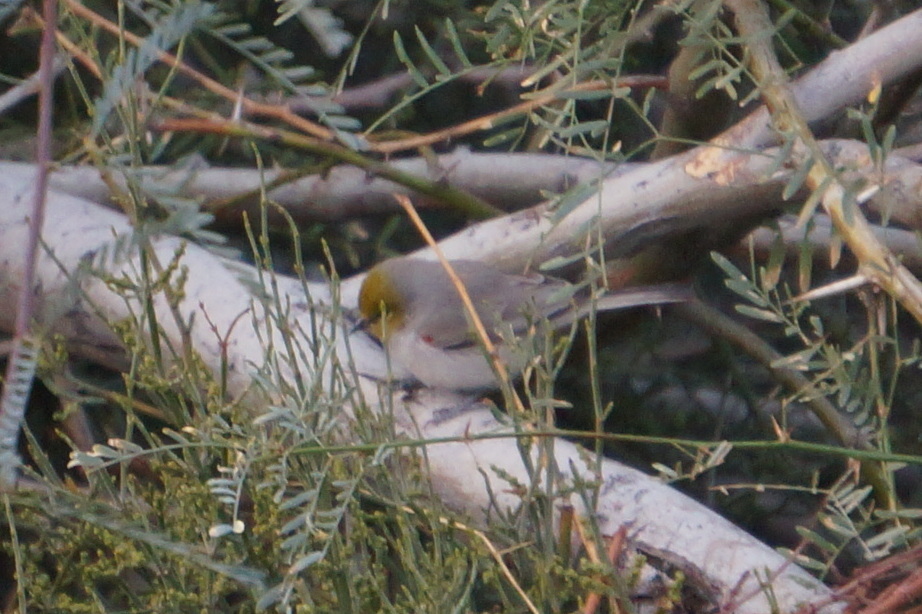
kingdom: Animalia
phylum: Chordata
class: Aves
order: Passeriformes
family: Remizidae
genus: Auriparus
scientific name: Auriparus flaviceps
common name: Verdin
